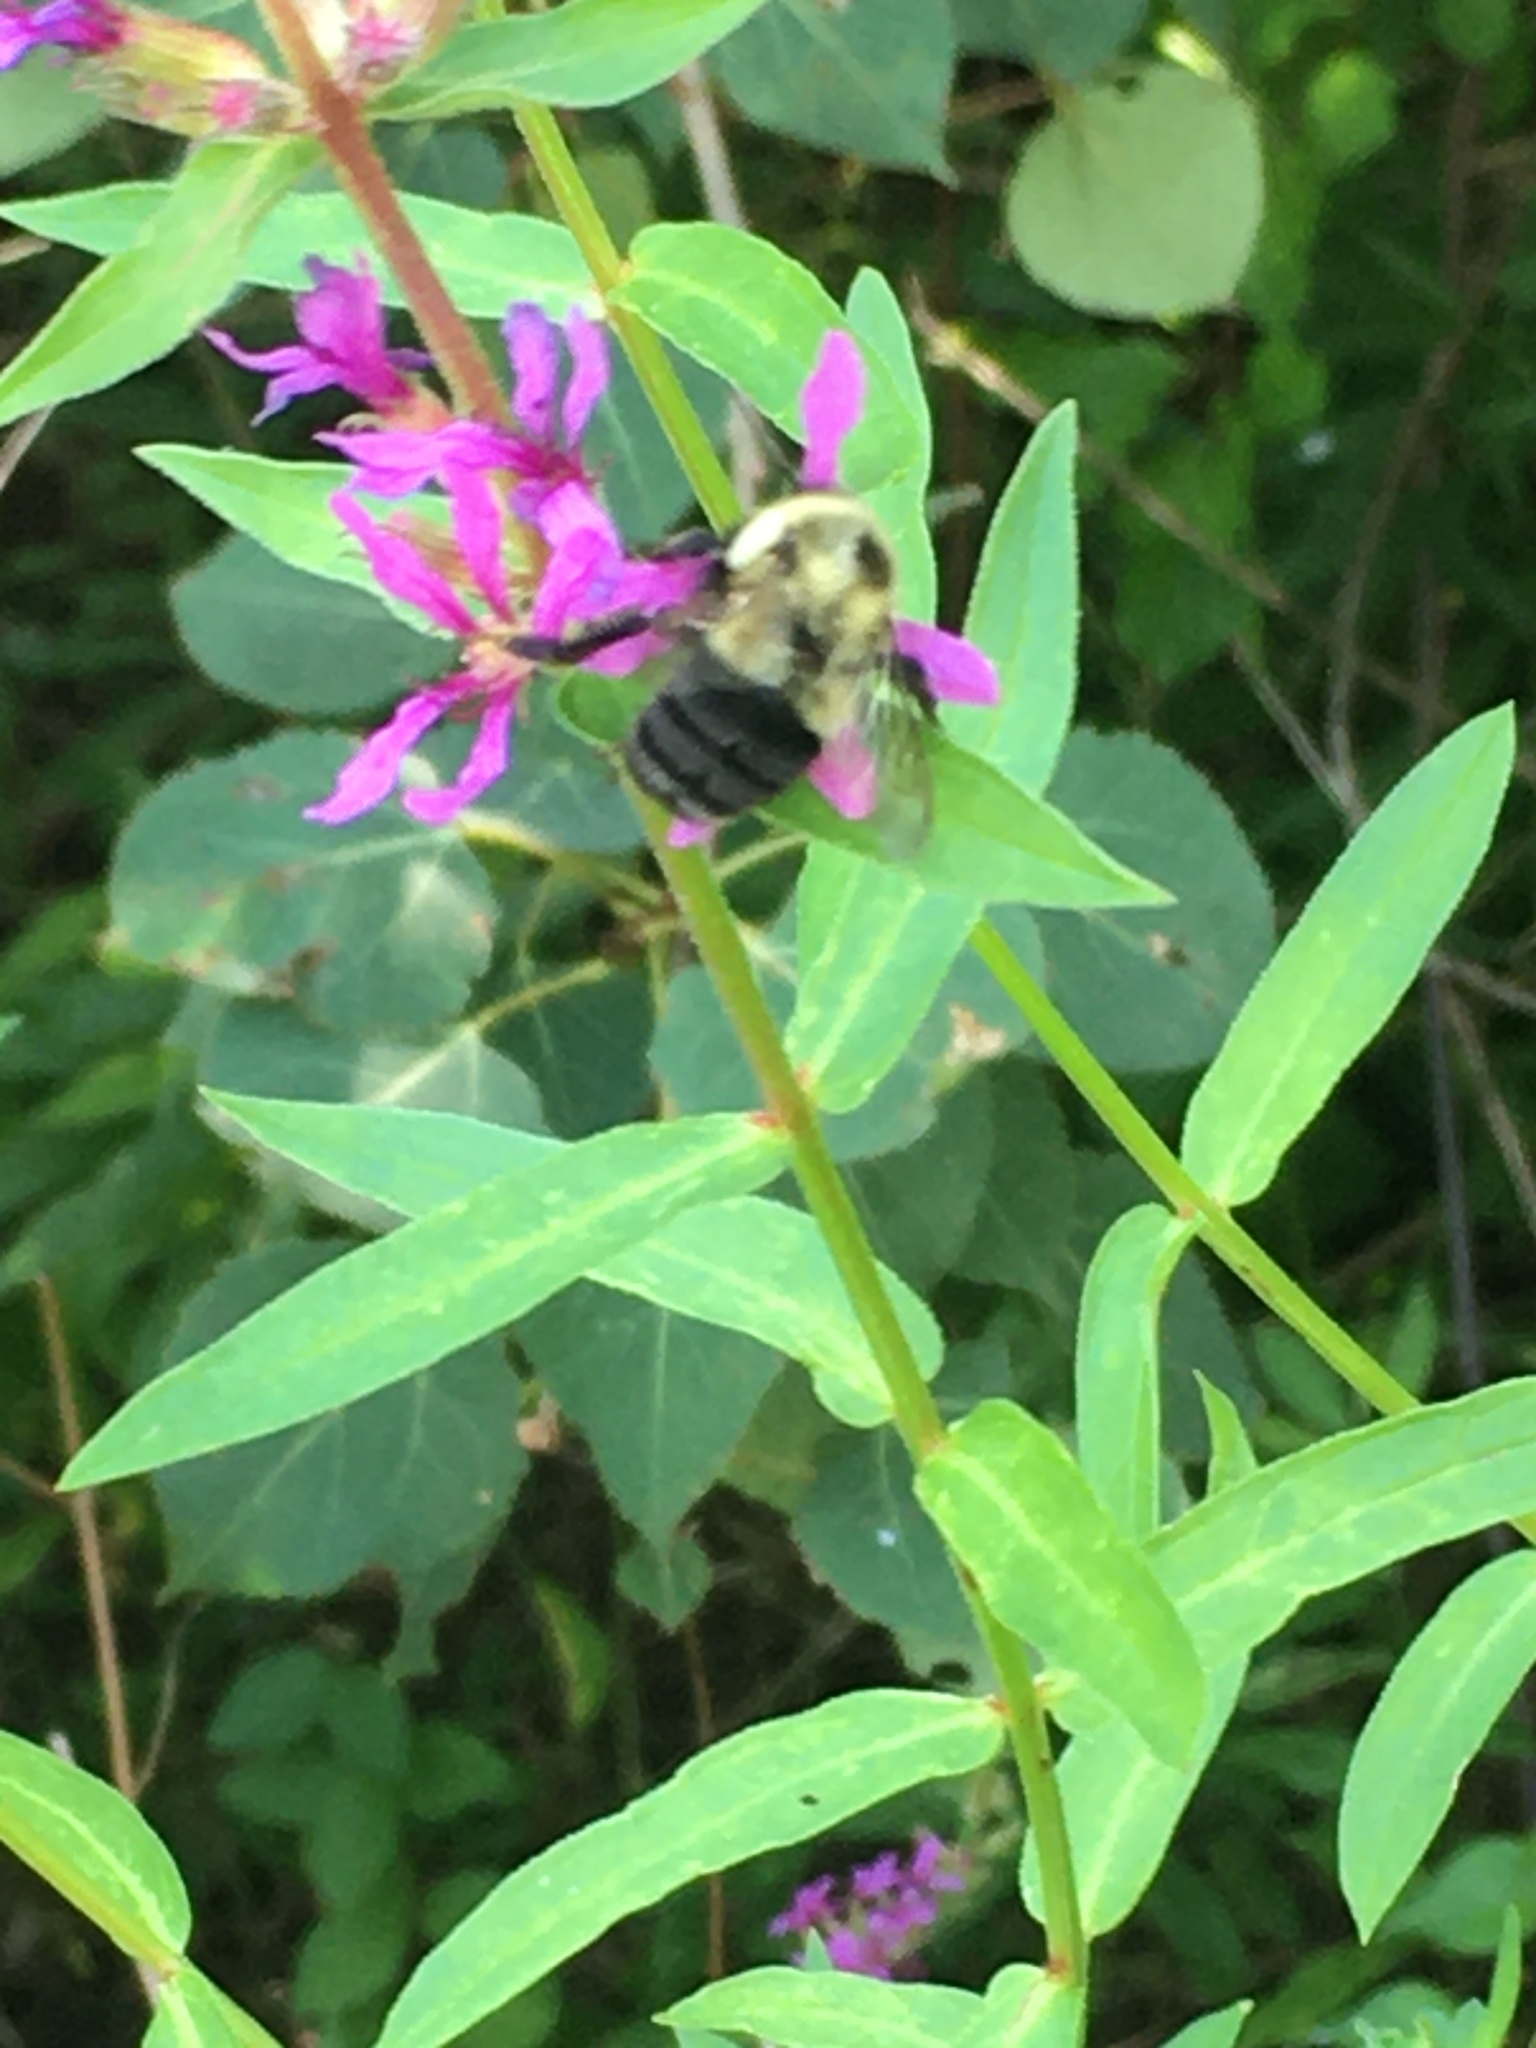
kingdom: Animalia
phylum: Arthropoda
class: Insecta
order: Hymenoptera
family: Apidae
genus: Bombus
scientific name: Bombus impatiens
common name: Common eastern bumble bee
